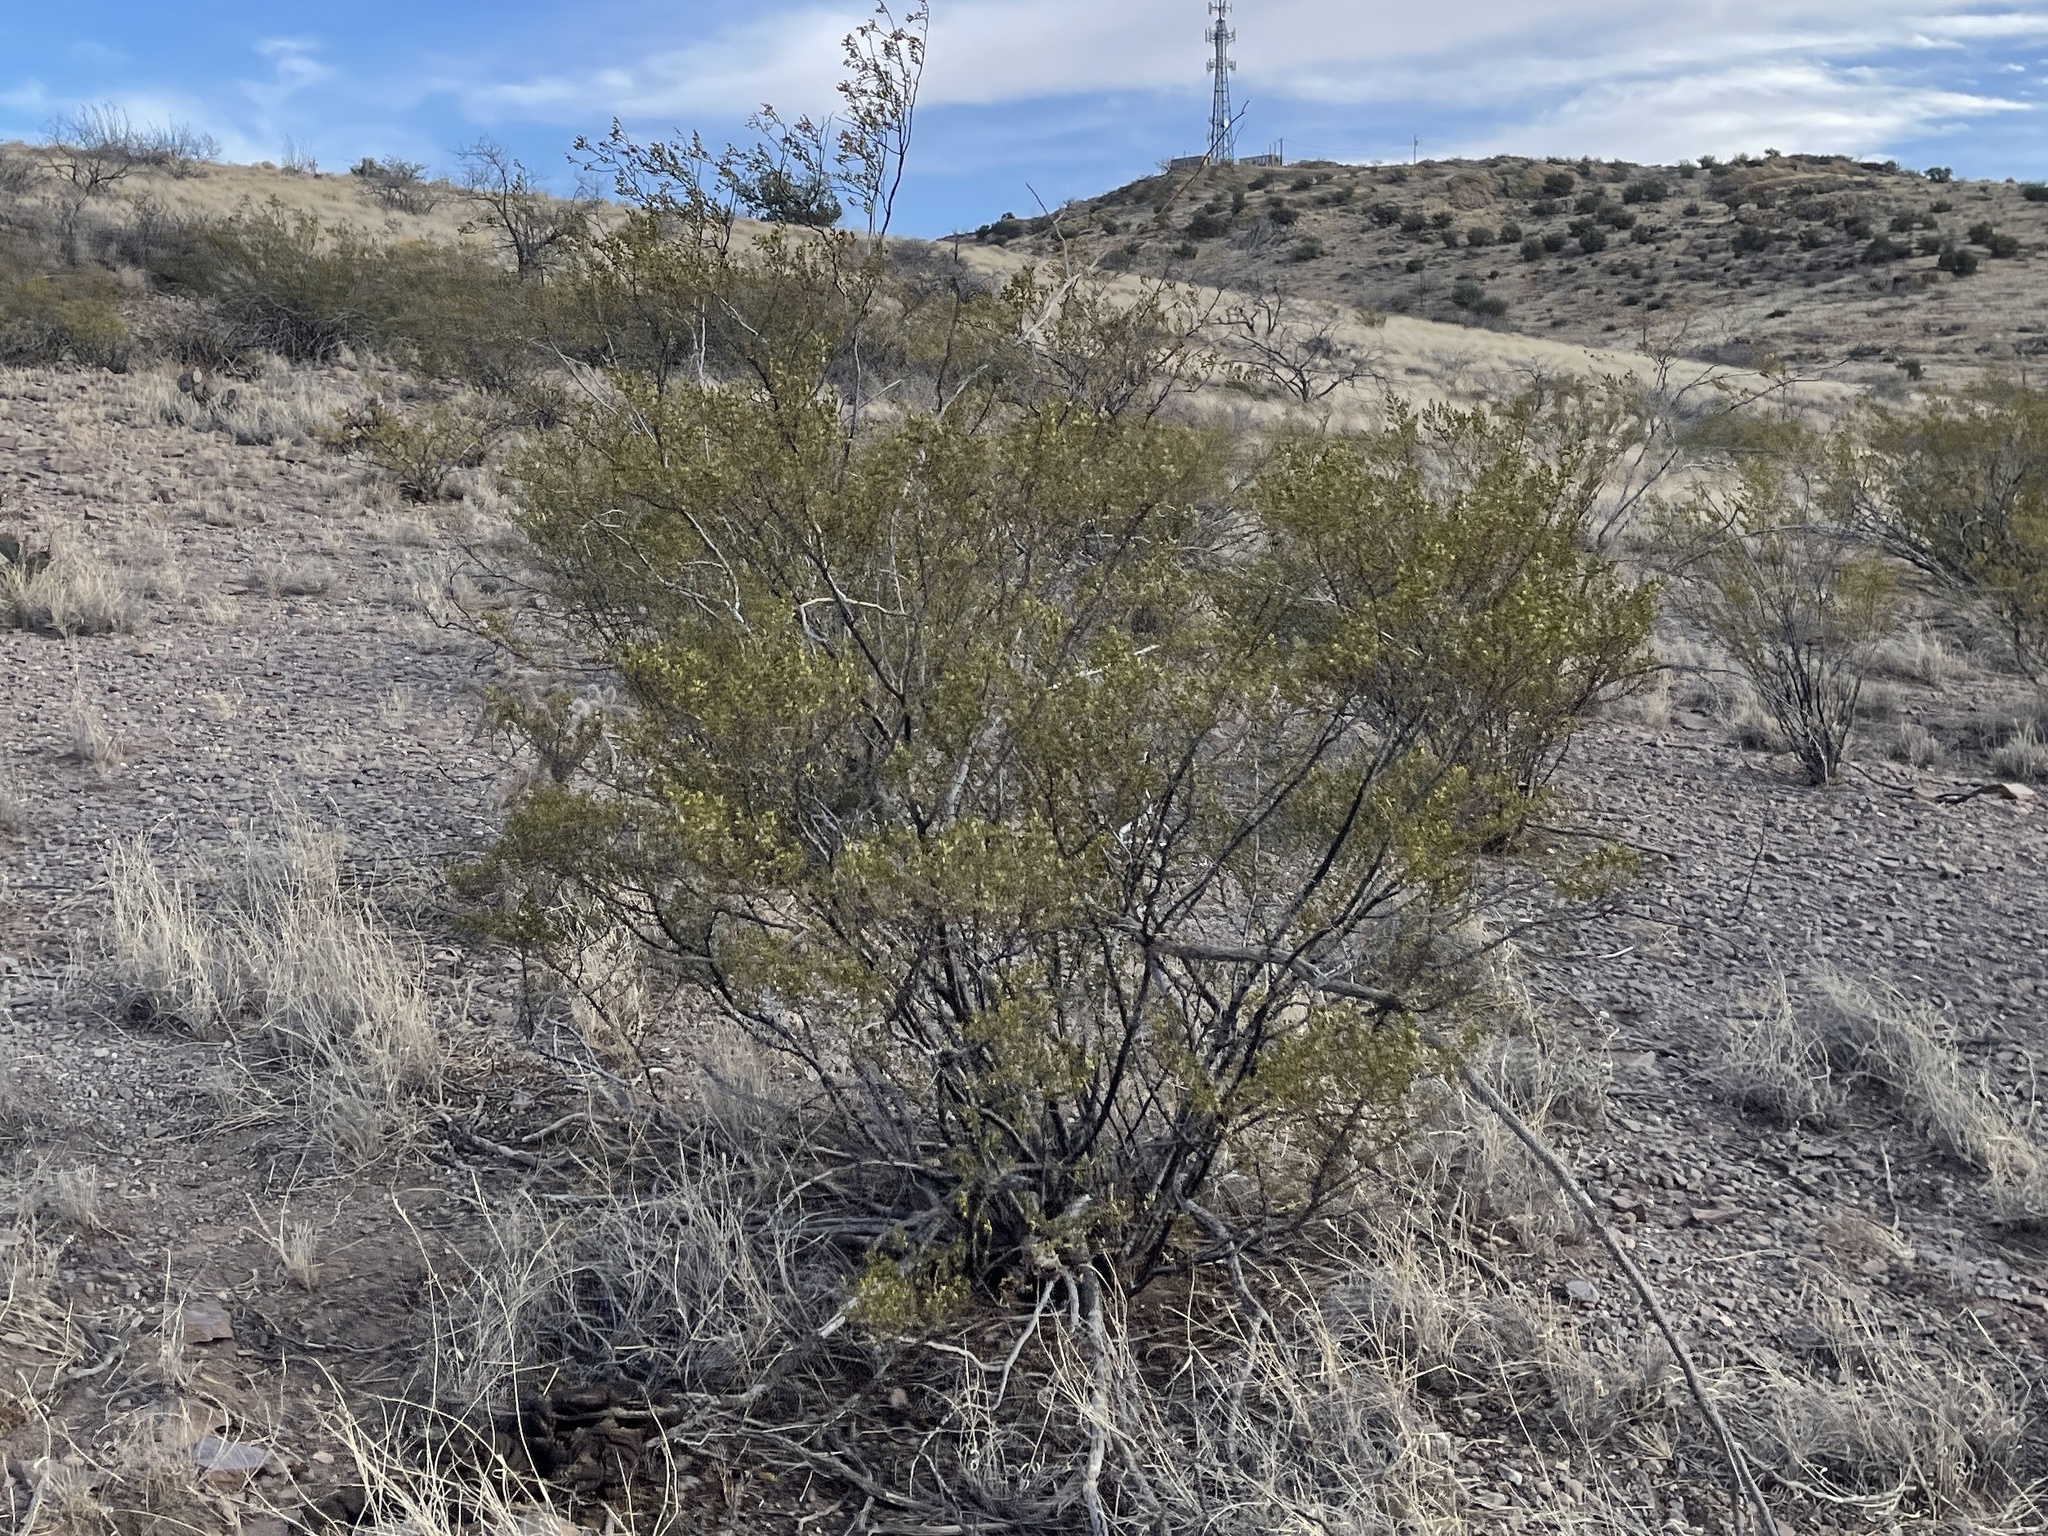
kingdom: Plantae
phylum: Tracheophyta
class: Magnoliopsida
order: Zygophyllales
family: Zygophyllaceae
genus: Larrea
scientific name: Larrea tridentata
